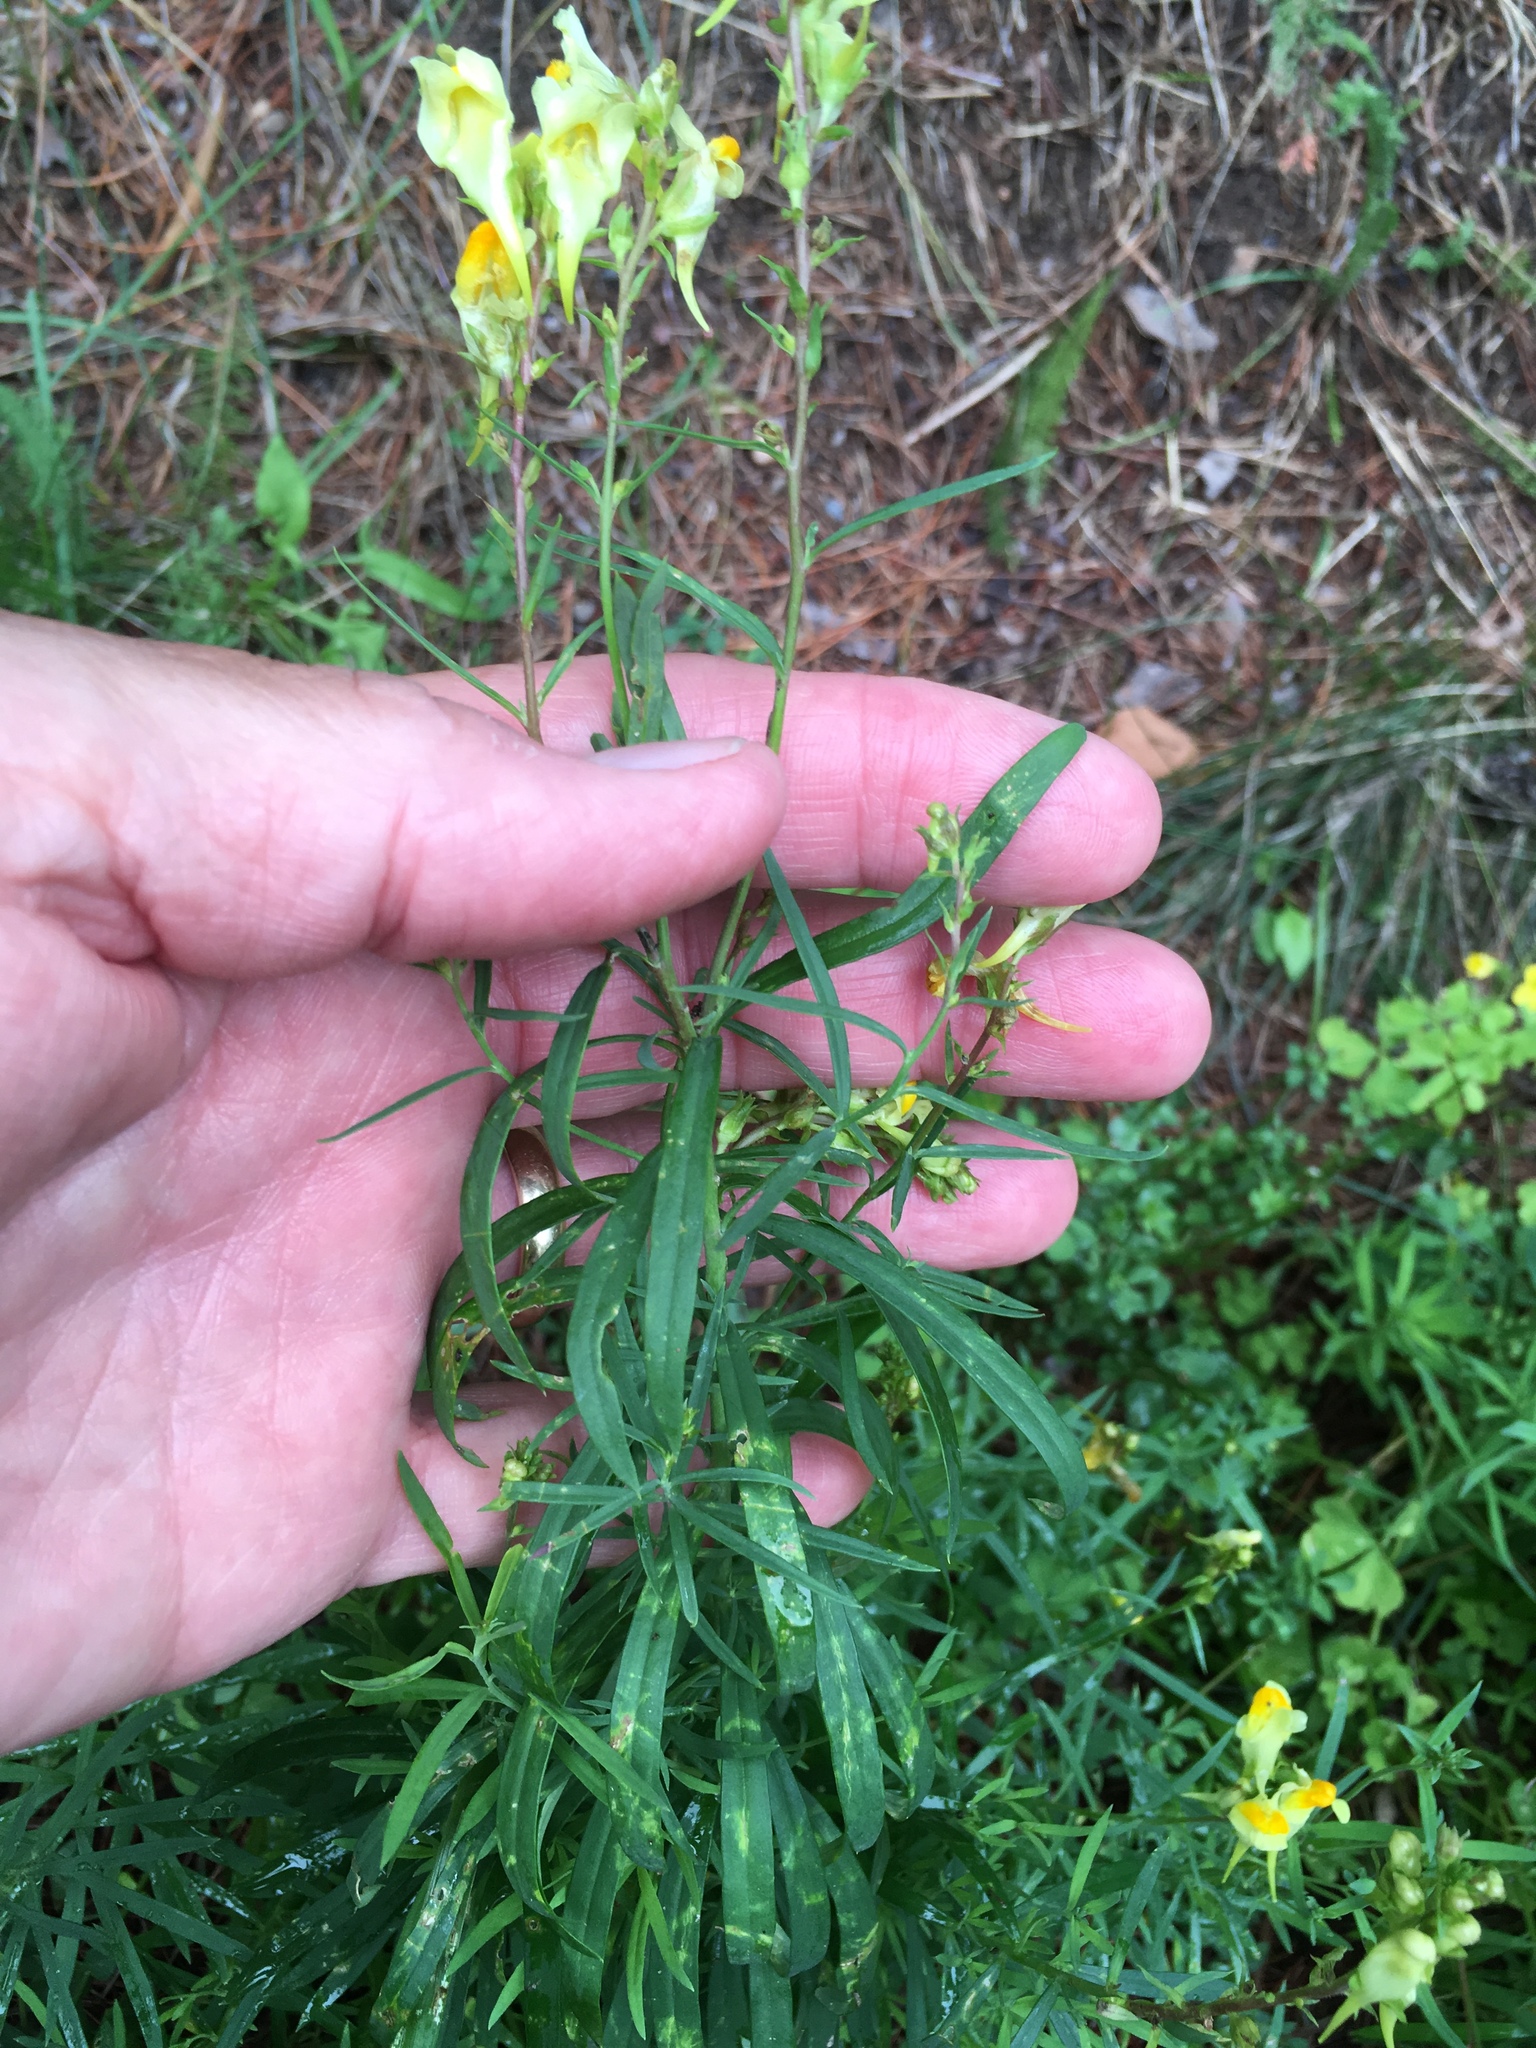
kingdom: Plantae
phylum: Tracheophyta
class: Magnoliopsida
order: Lamiales
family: Plantaginaceae
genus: Linaria
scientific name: Linaria vulgaris
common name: Butter and eggs
